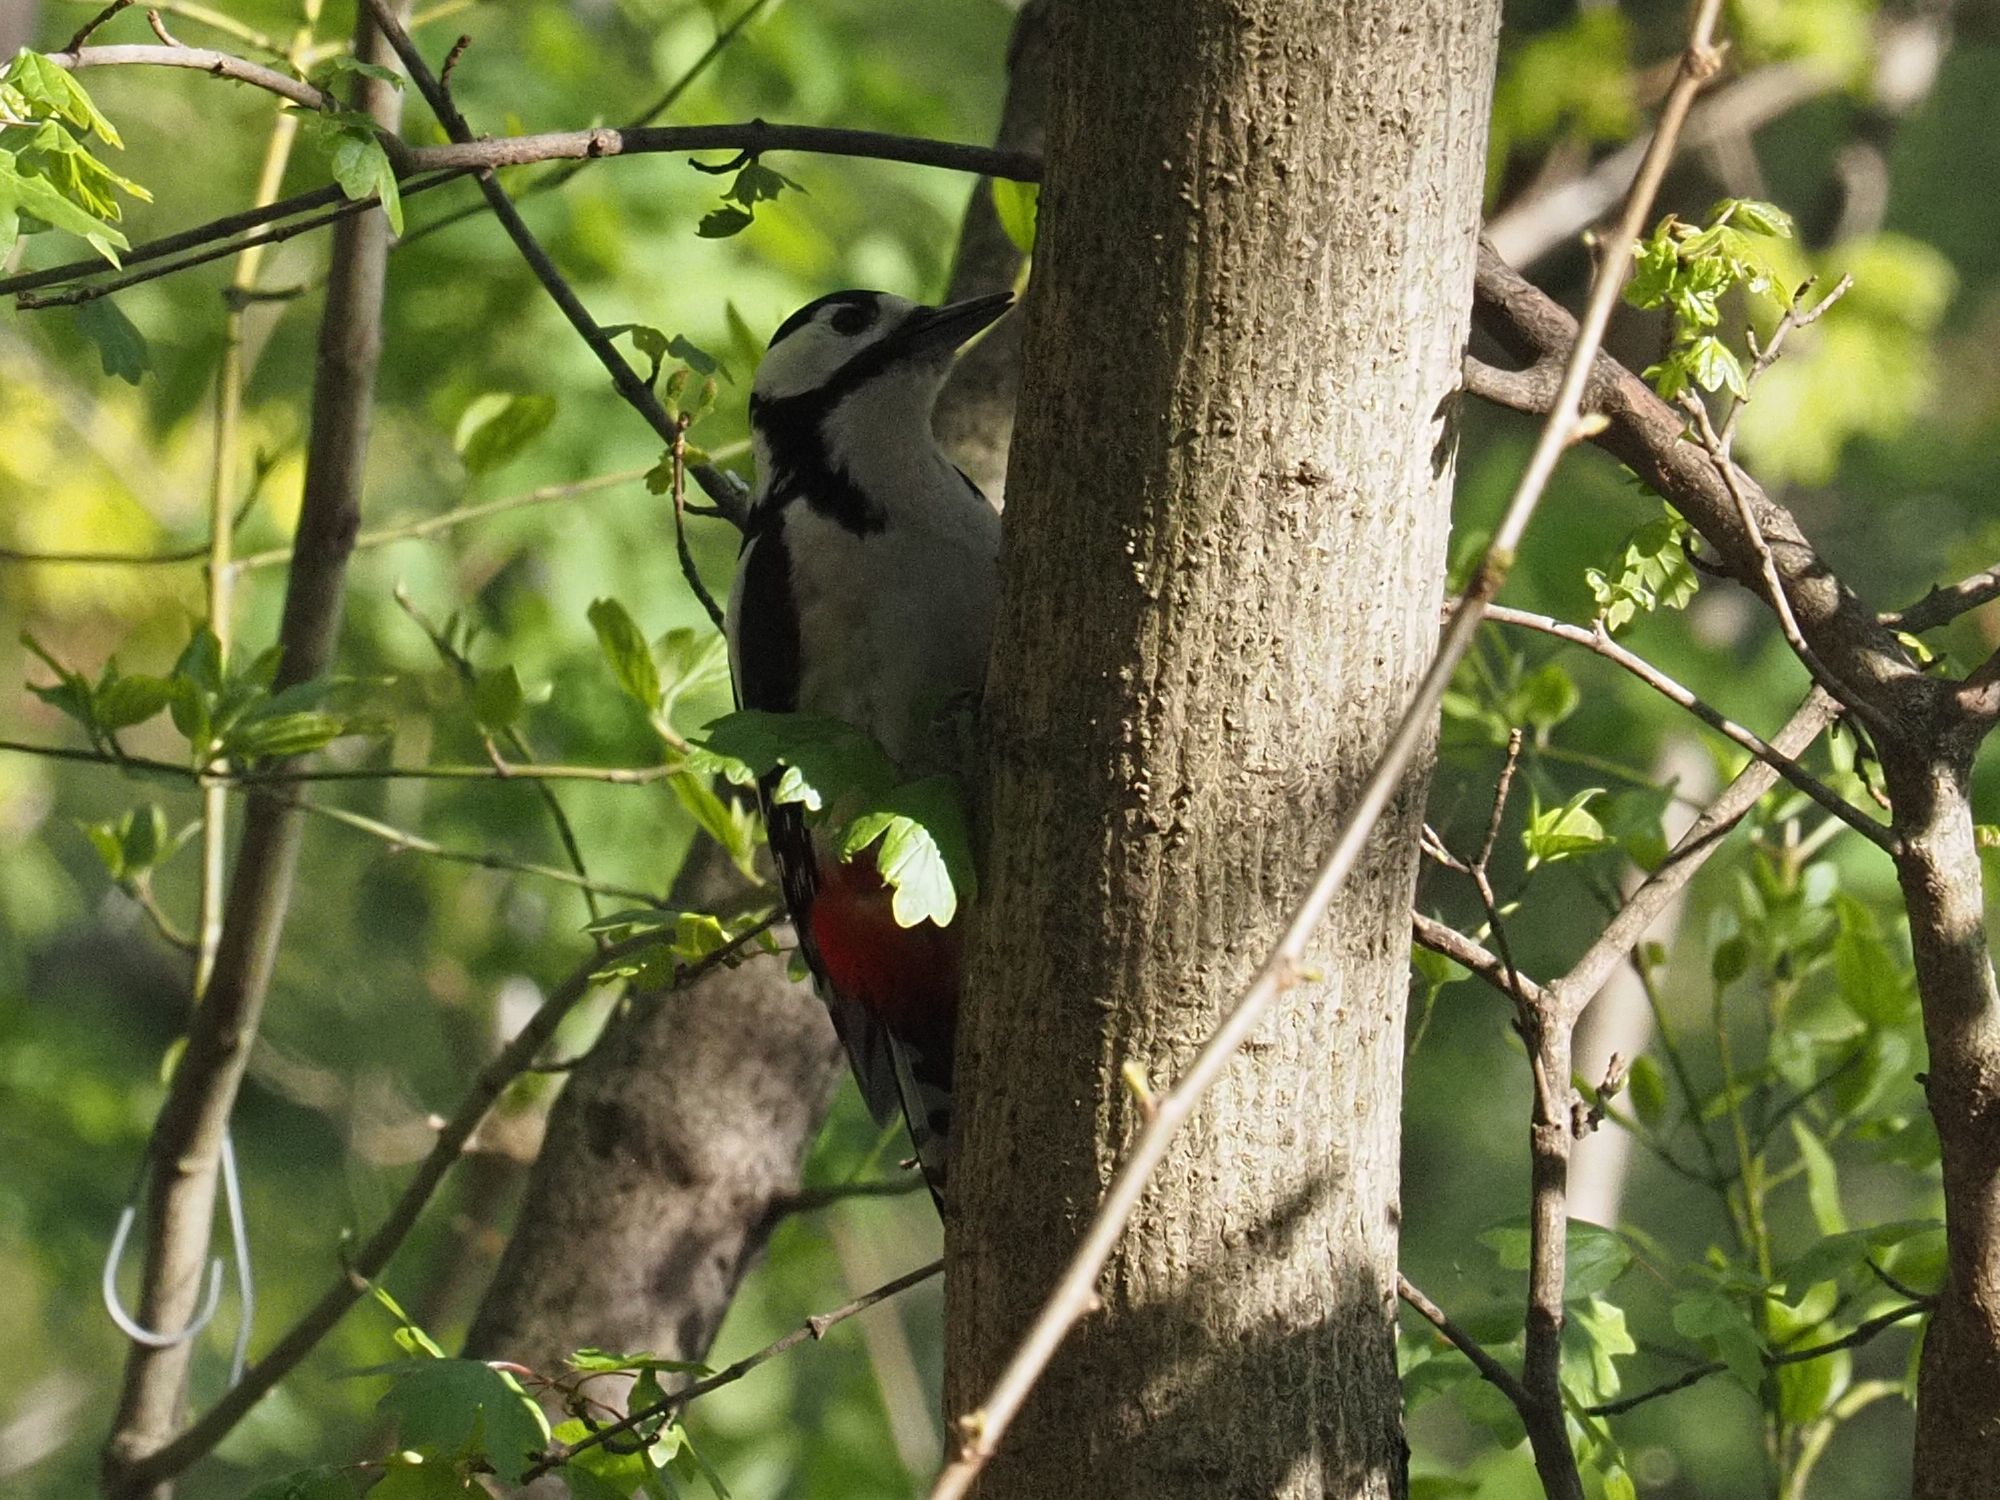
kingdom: Animalia
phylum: Chordata
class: Aves
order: Piciformes
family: Picidae
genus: Dendrocopos
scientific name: Dendrocopos major
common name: Great spotted woodpecker
